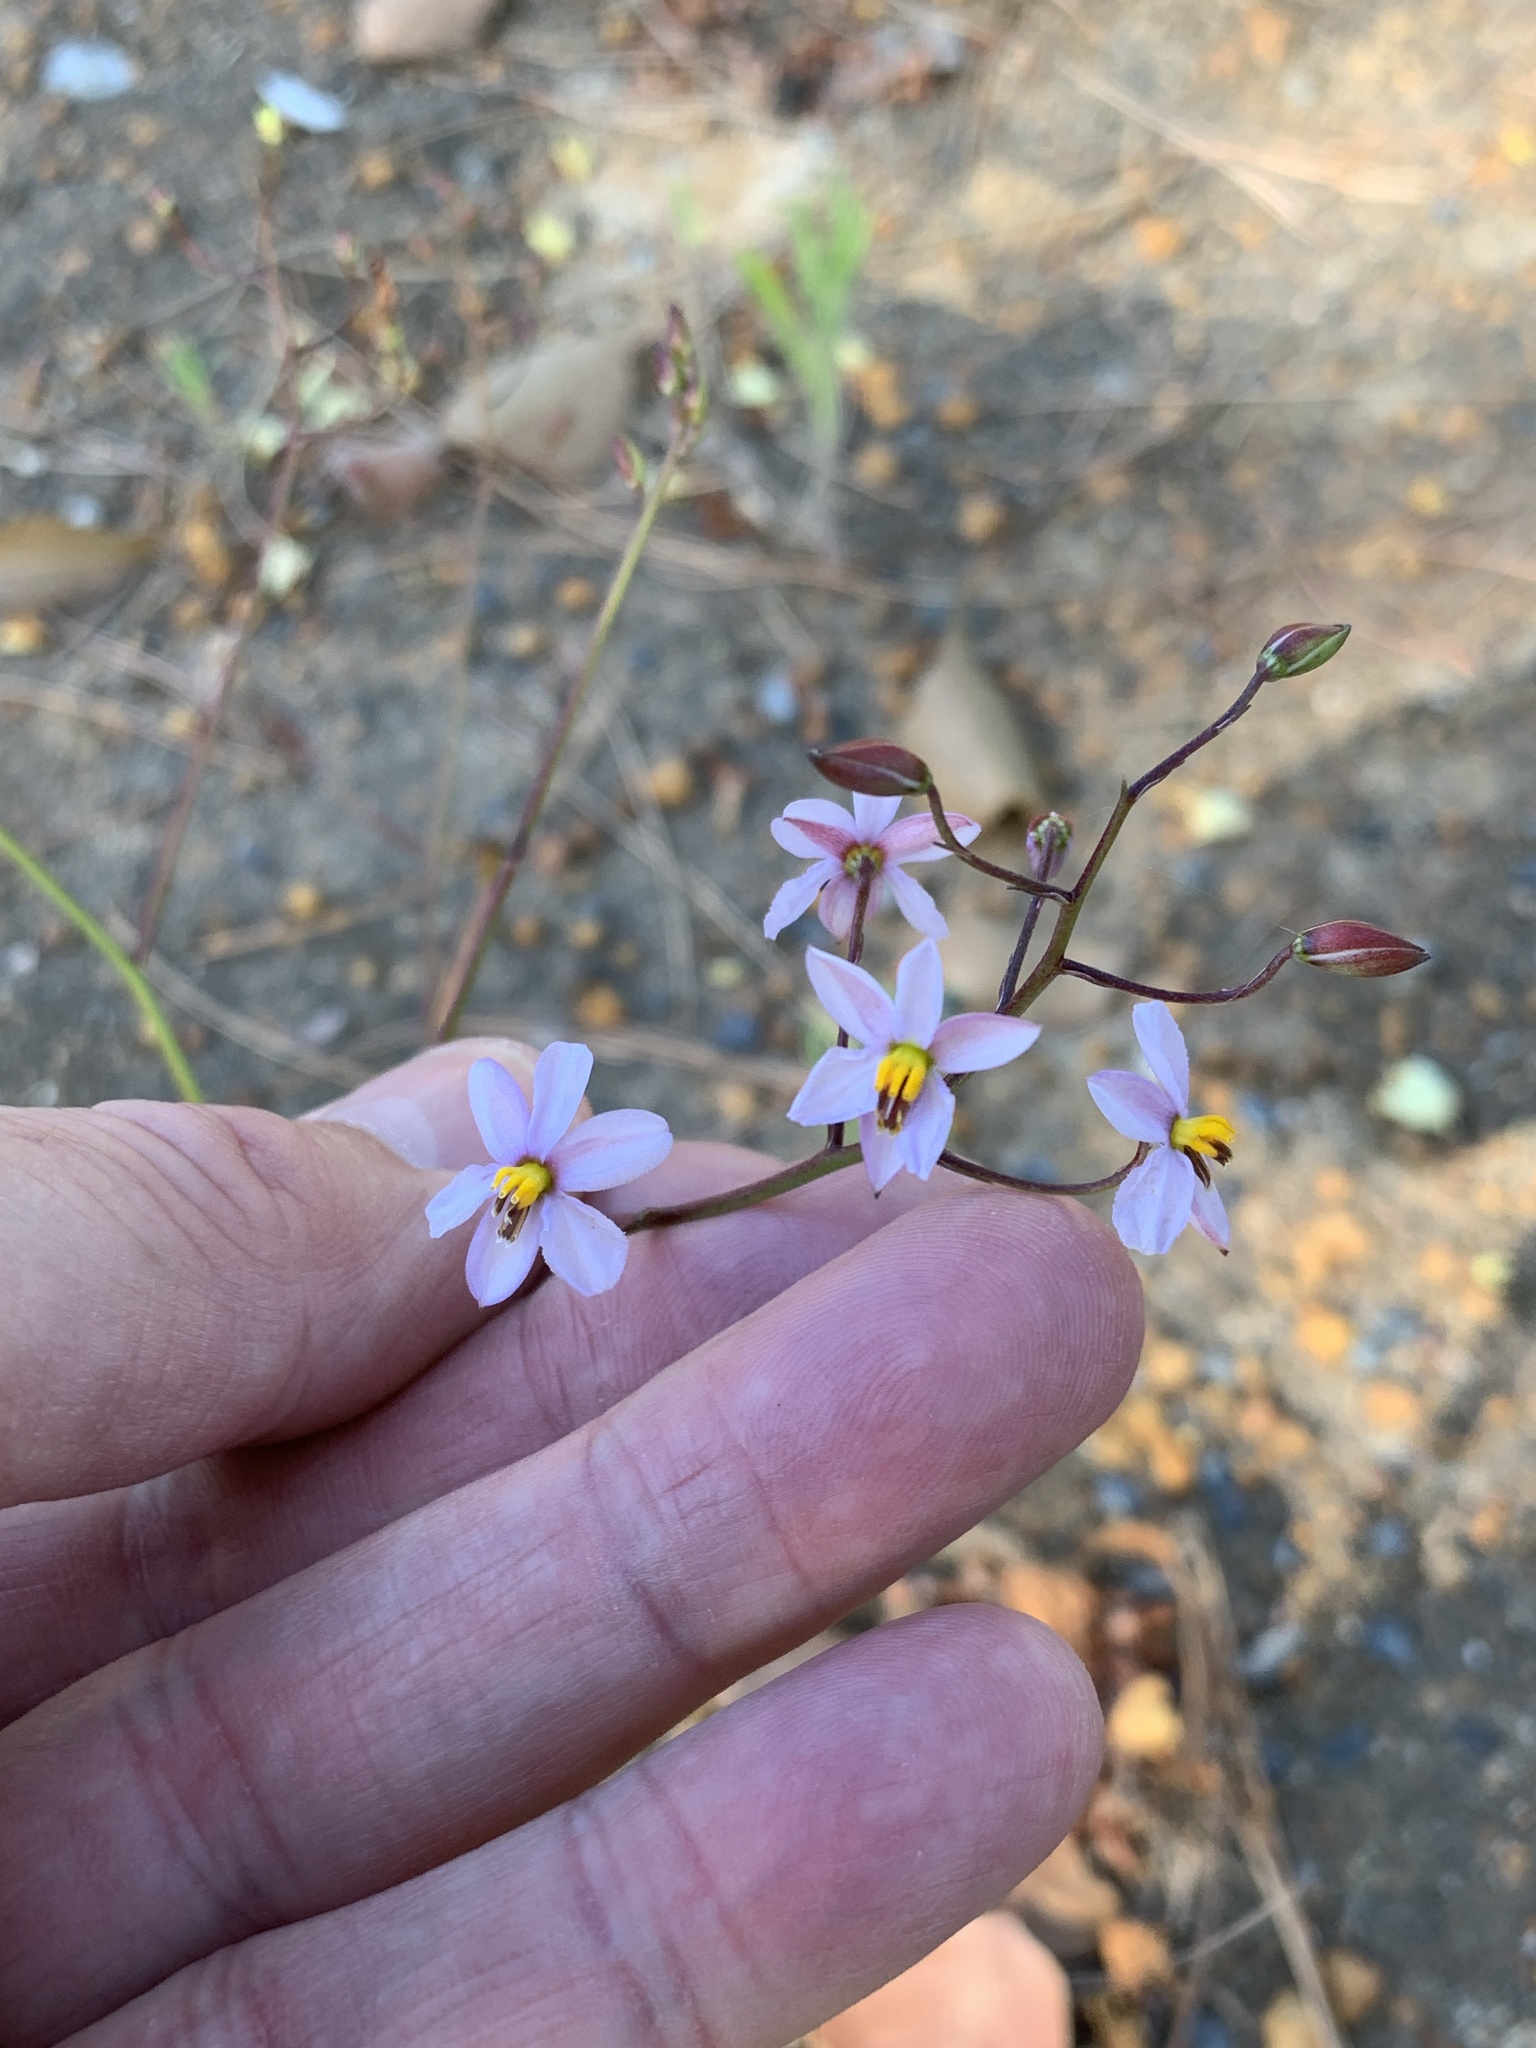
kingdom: Plantae
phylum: Tracheophyta
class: Liliopsida
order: Asparagales
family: Tecophilaeaceae
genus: Cyanella
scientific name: Cyanella hyacinthoides
